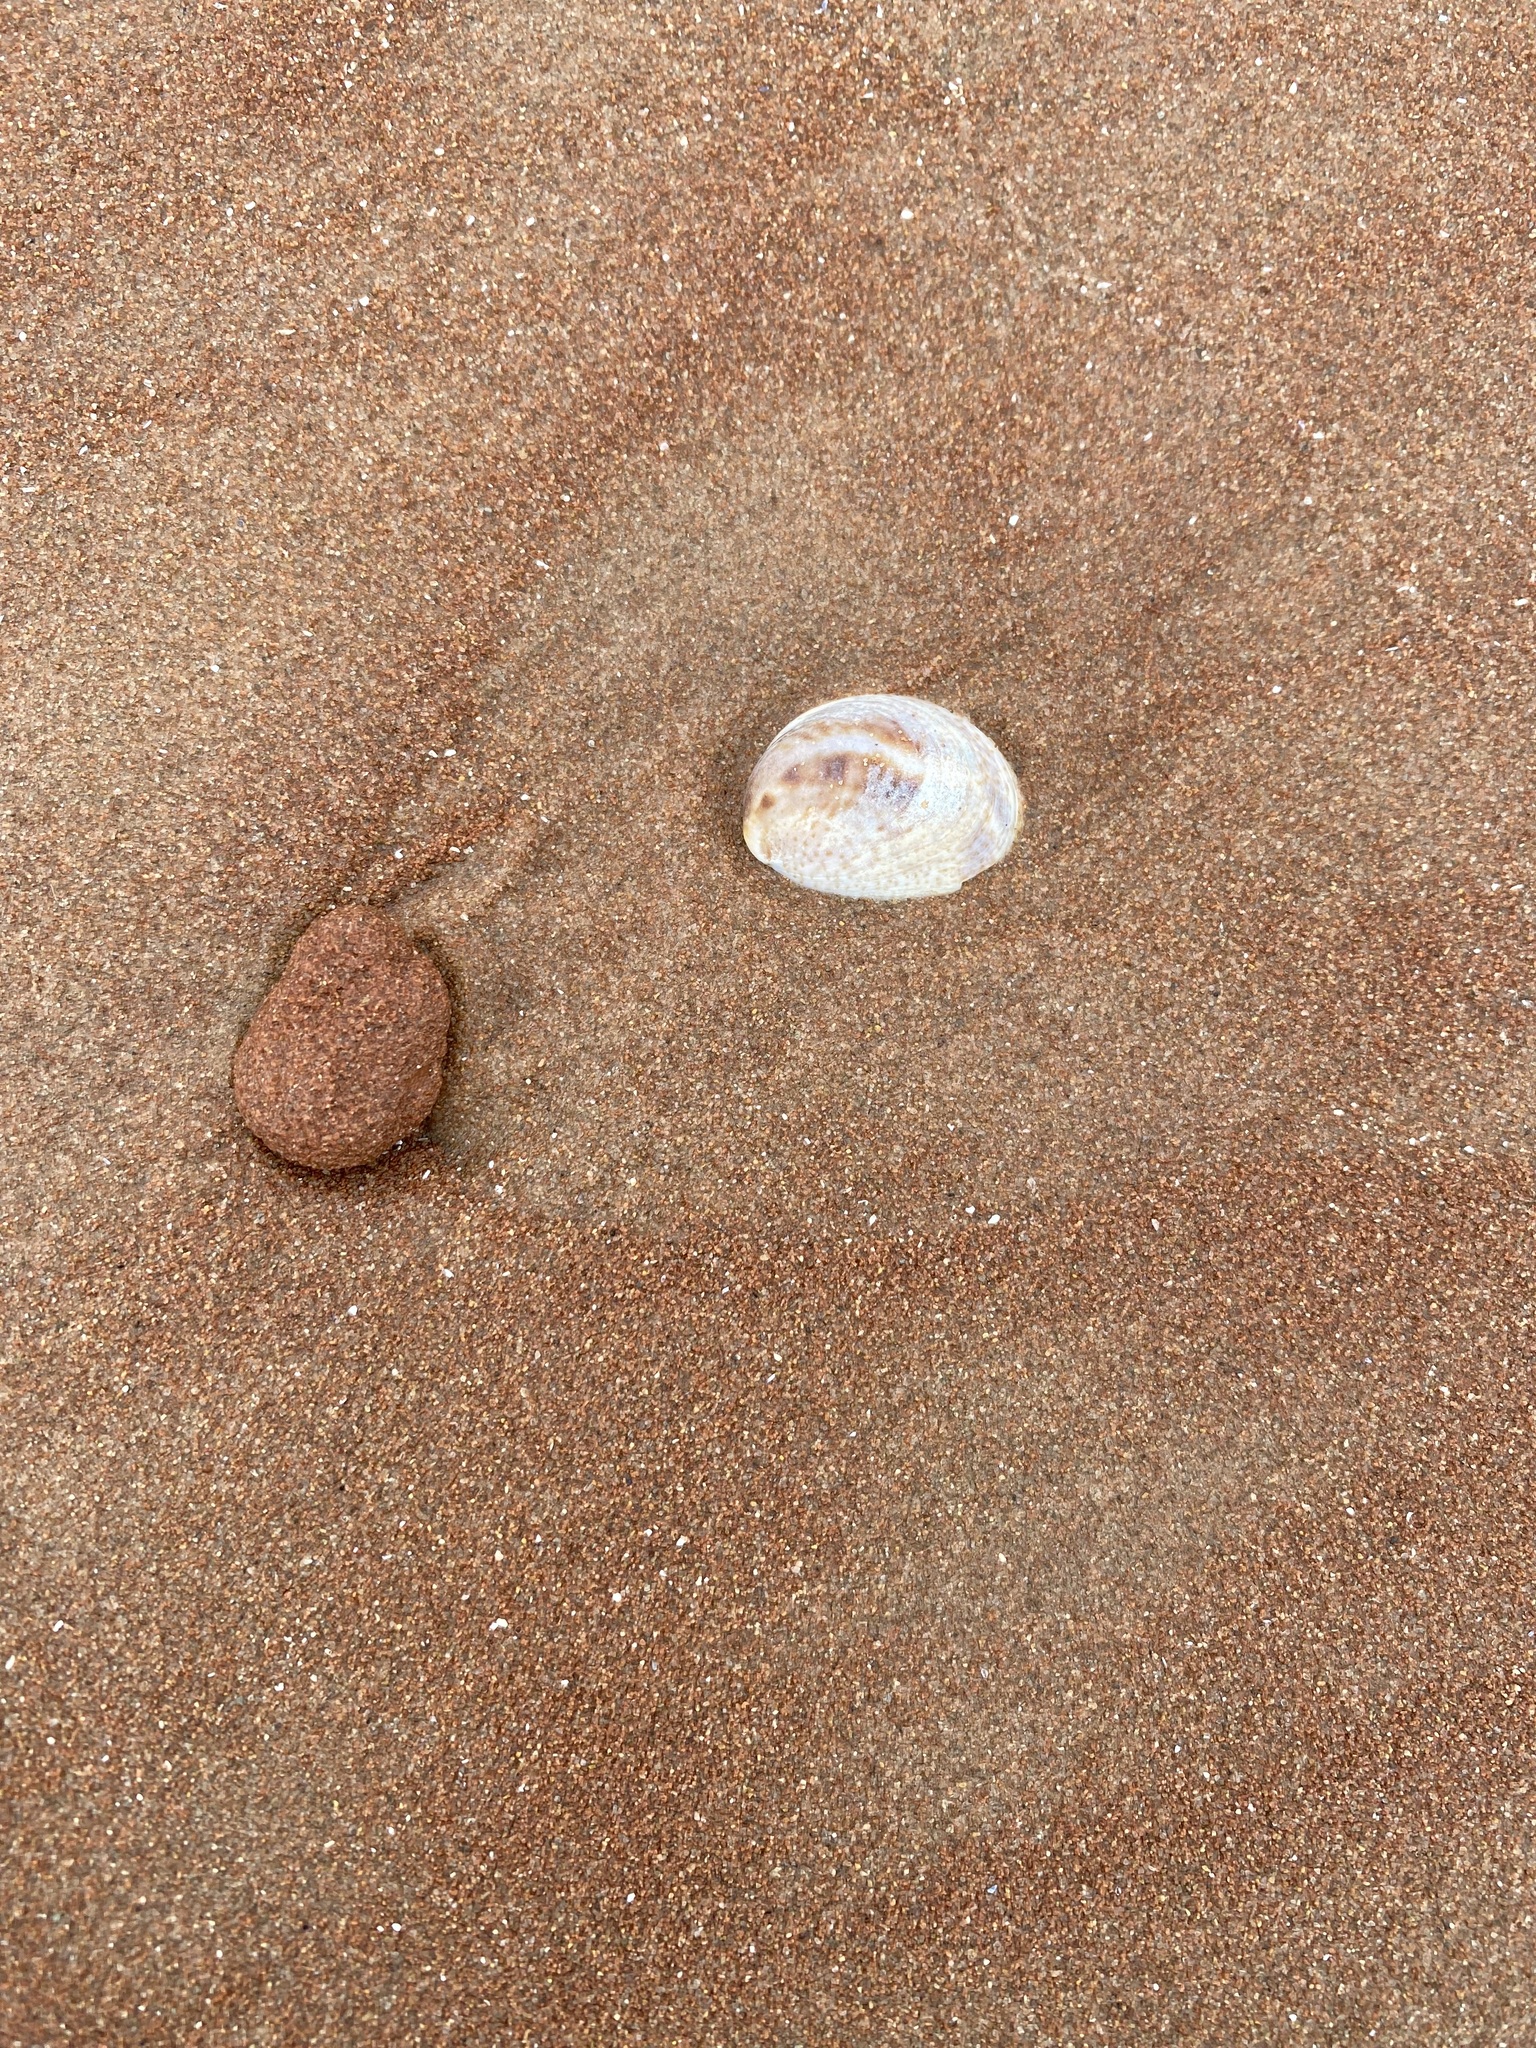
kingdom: Animalia
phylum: Mollusca
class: Gastropoda
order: Littorinimorpha
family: Calyptraeidae
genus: Crepidula
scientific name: Crepidula fornicata
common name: Slipper limpet
